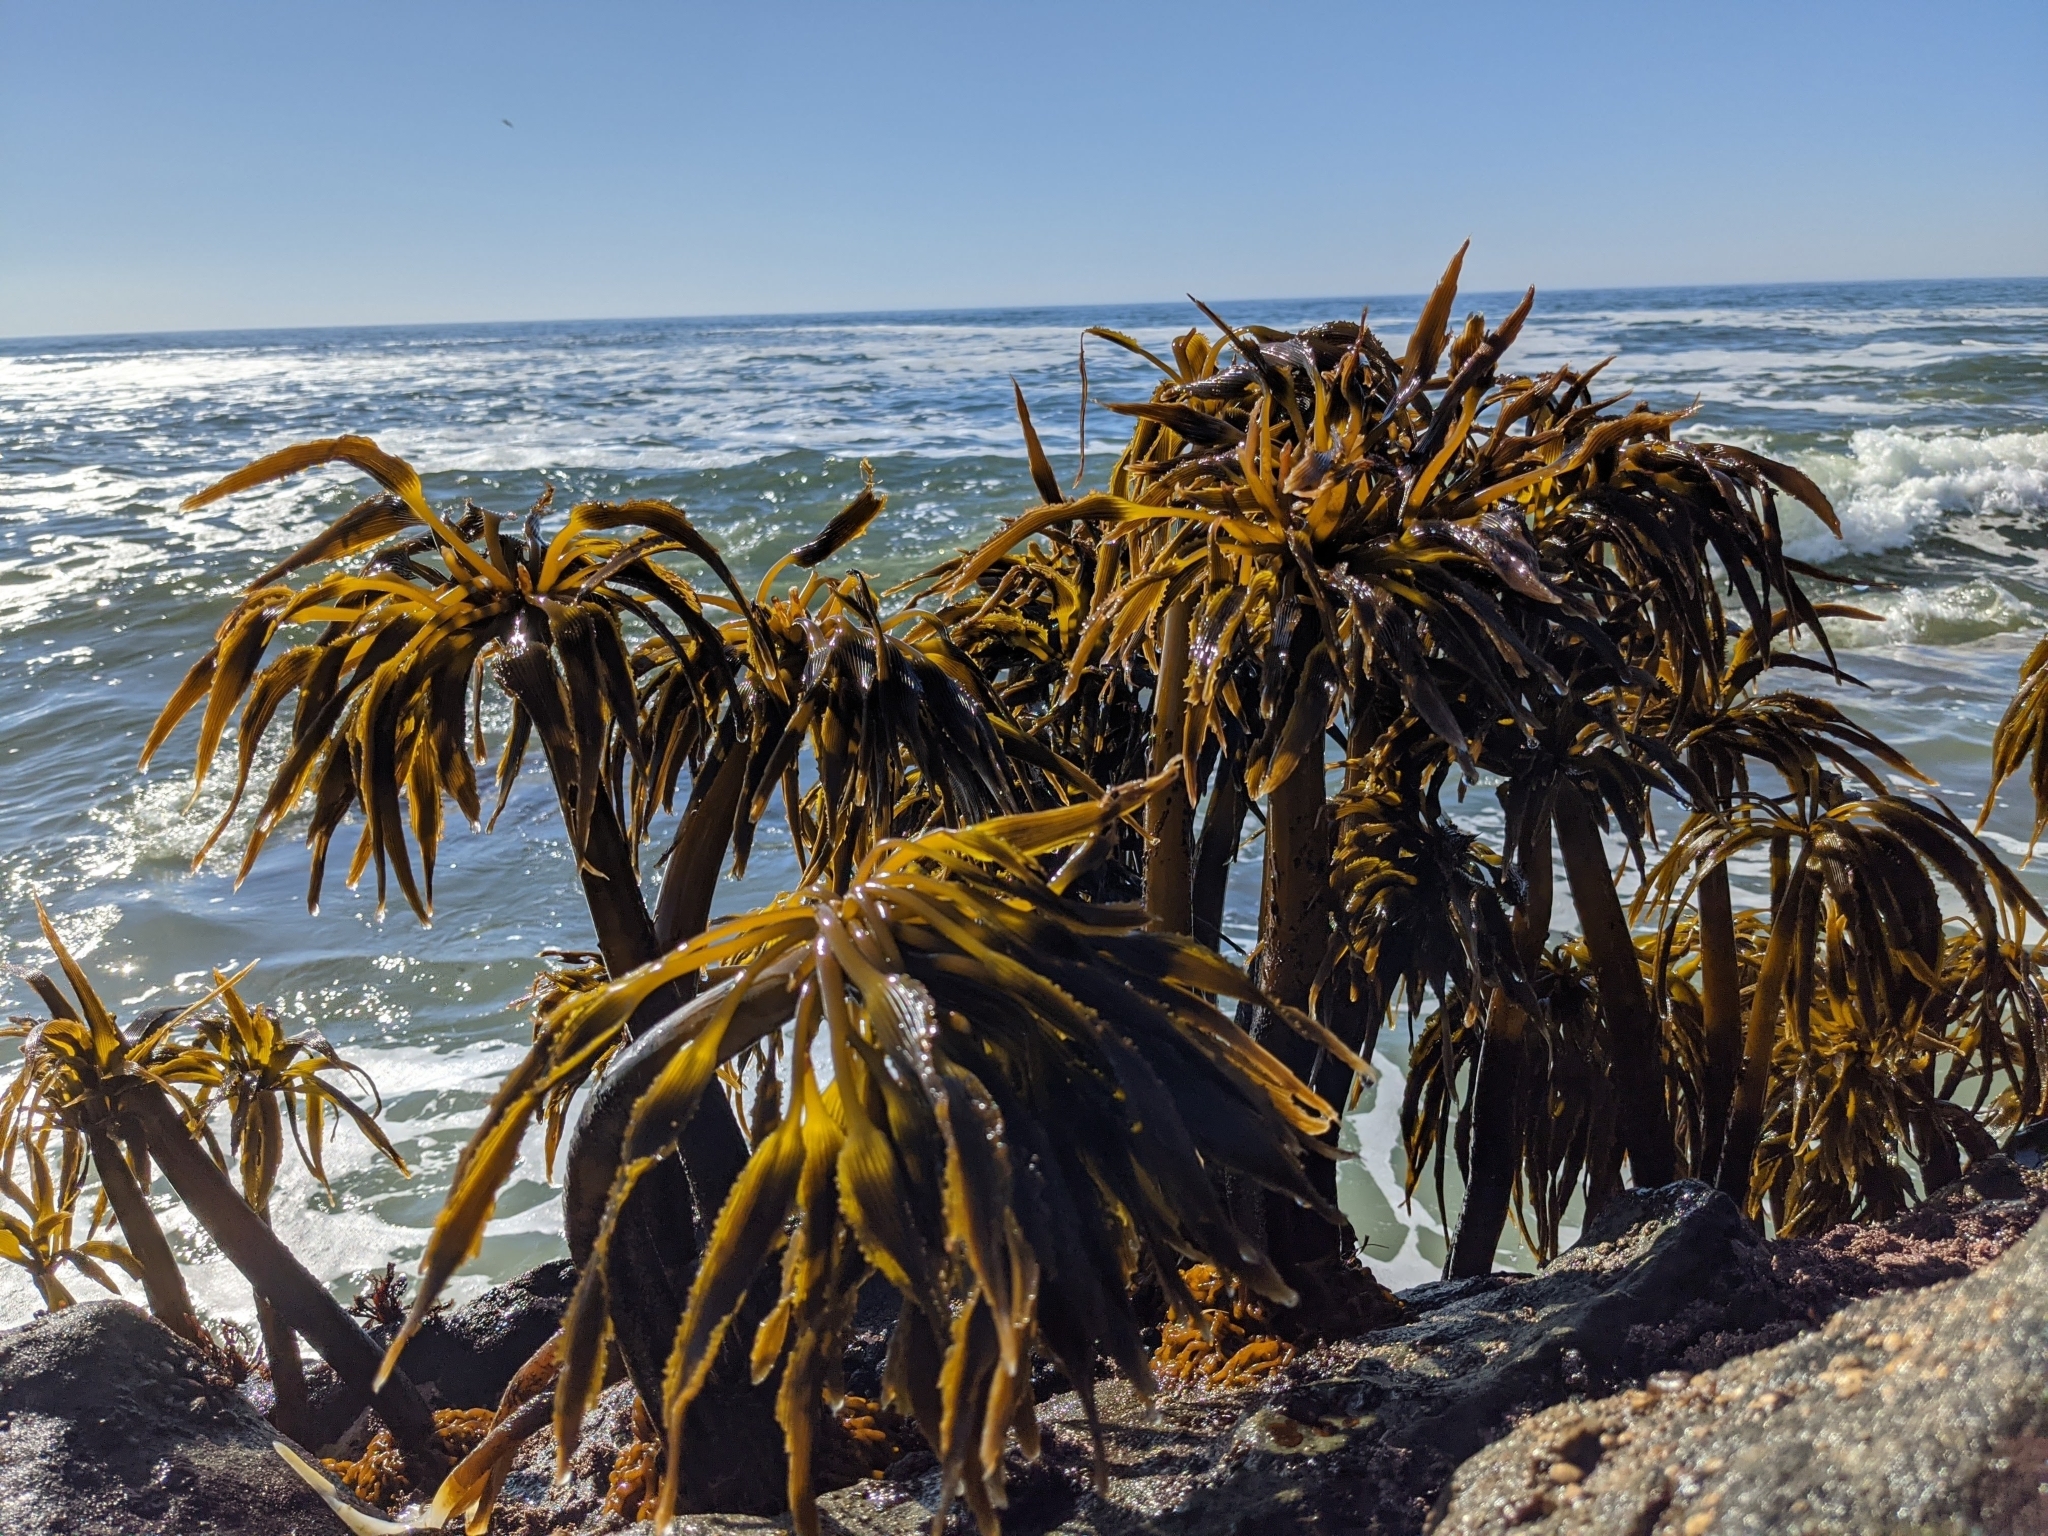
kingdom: Chromista
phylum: Ochrophyta
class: Phaeophyceae
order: Laminariales
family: Laminariaceae
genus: Postelsia
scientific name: Postelsia palmiformis
